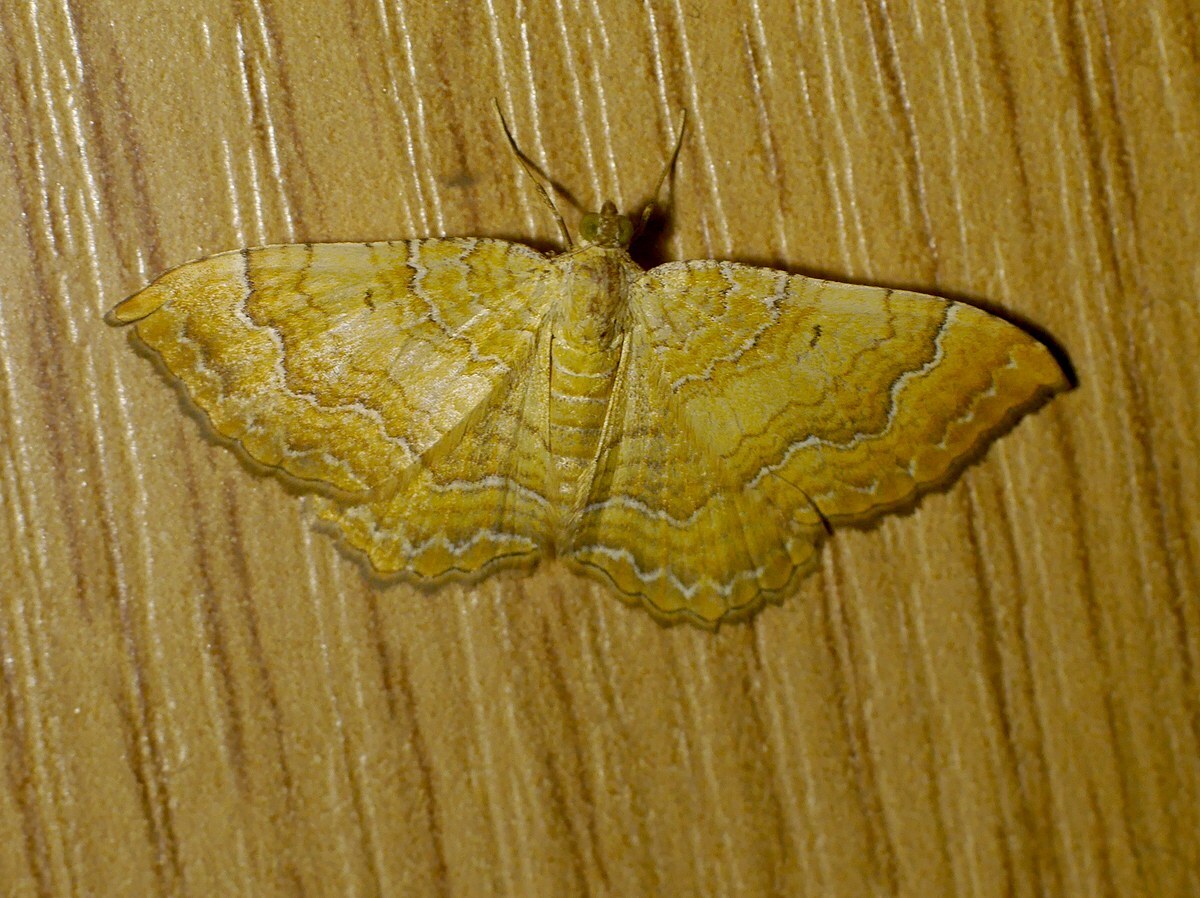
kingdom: Animalia
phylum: Arthropoda
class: Insecta
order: Lepidoptera
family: Geometridae
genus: Camptogramma
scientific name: Camptogramma bilineata
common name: Yellow shell
